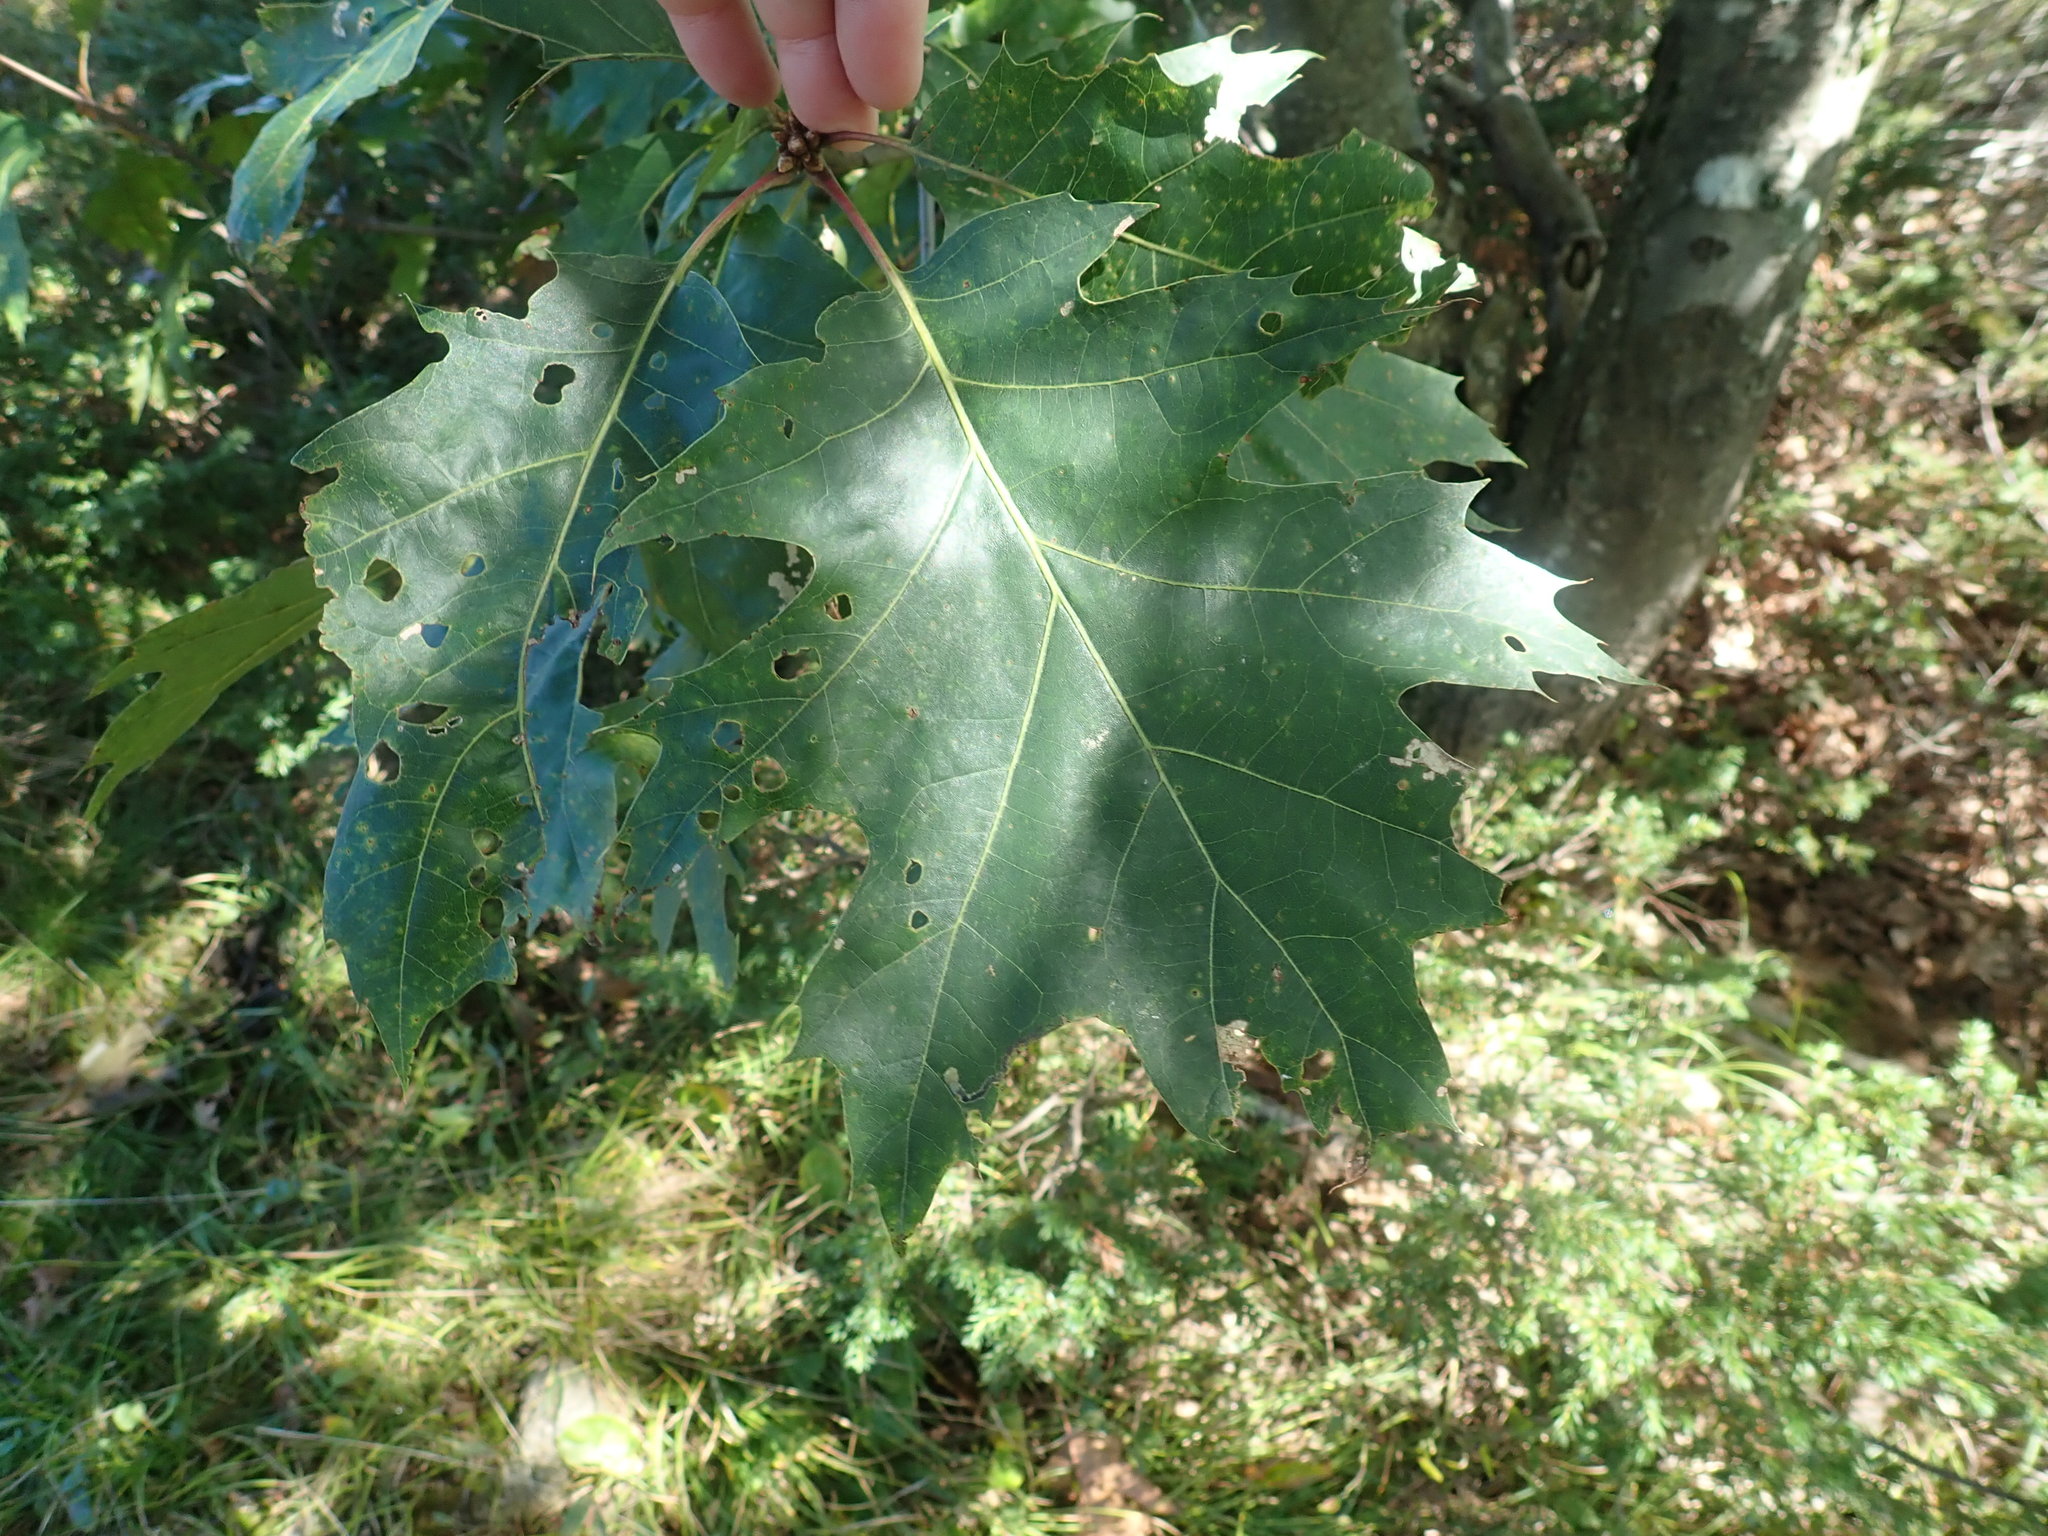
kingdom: Plantae
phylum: Tracheophyta
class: Magnoliopsida
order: Fagales
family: Fagaceae
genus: Quercus
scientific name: Quercus velutina
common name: Black oak
